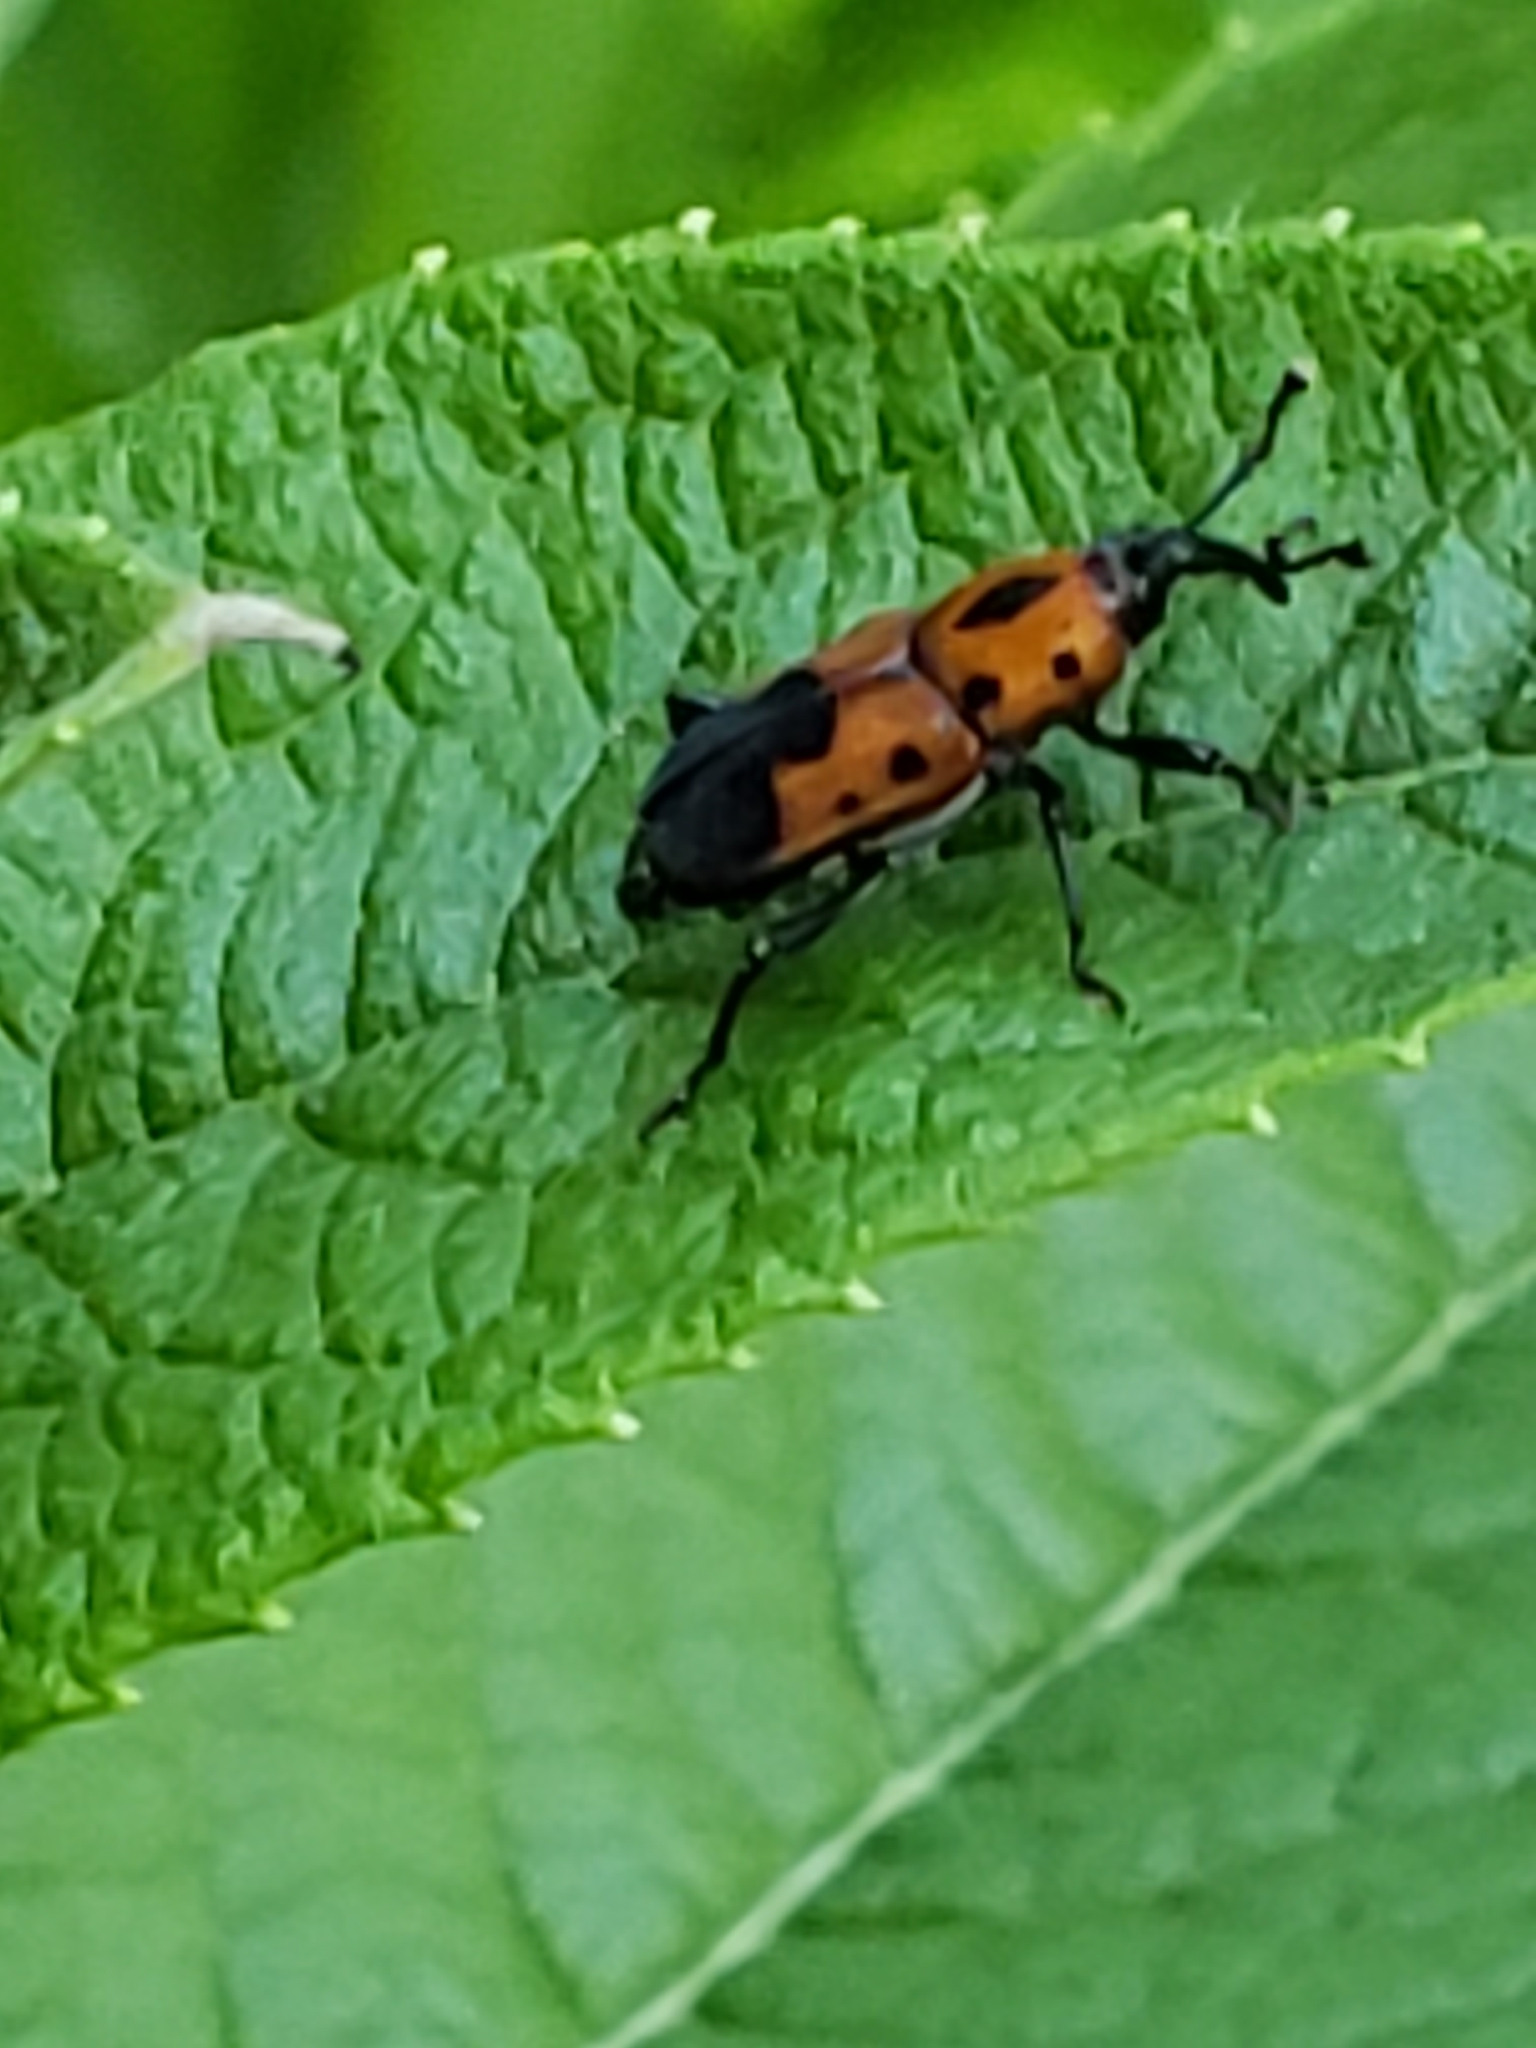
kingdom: Animalia
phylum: Arthropoda
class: Insecta
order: Coleoptera
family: Dryophthoridae
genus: Rhodobaenus
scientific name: Rhodobaenus quinquepunctatus
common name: Cocklebur weevil
